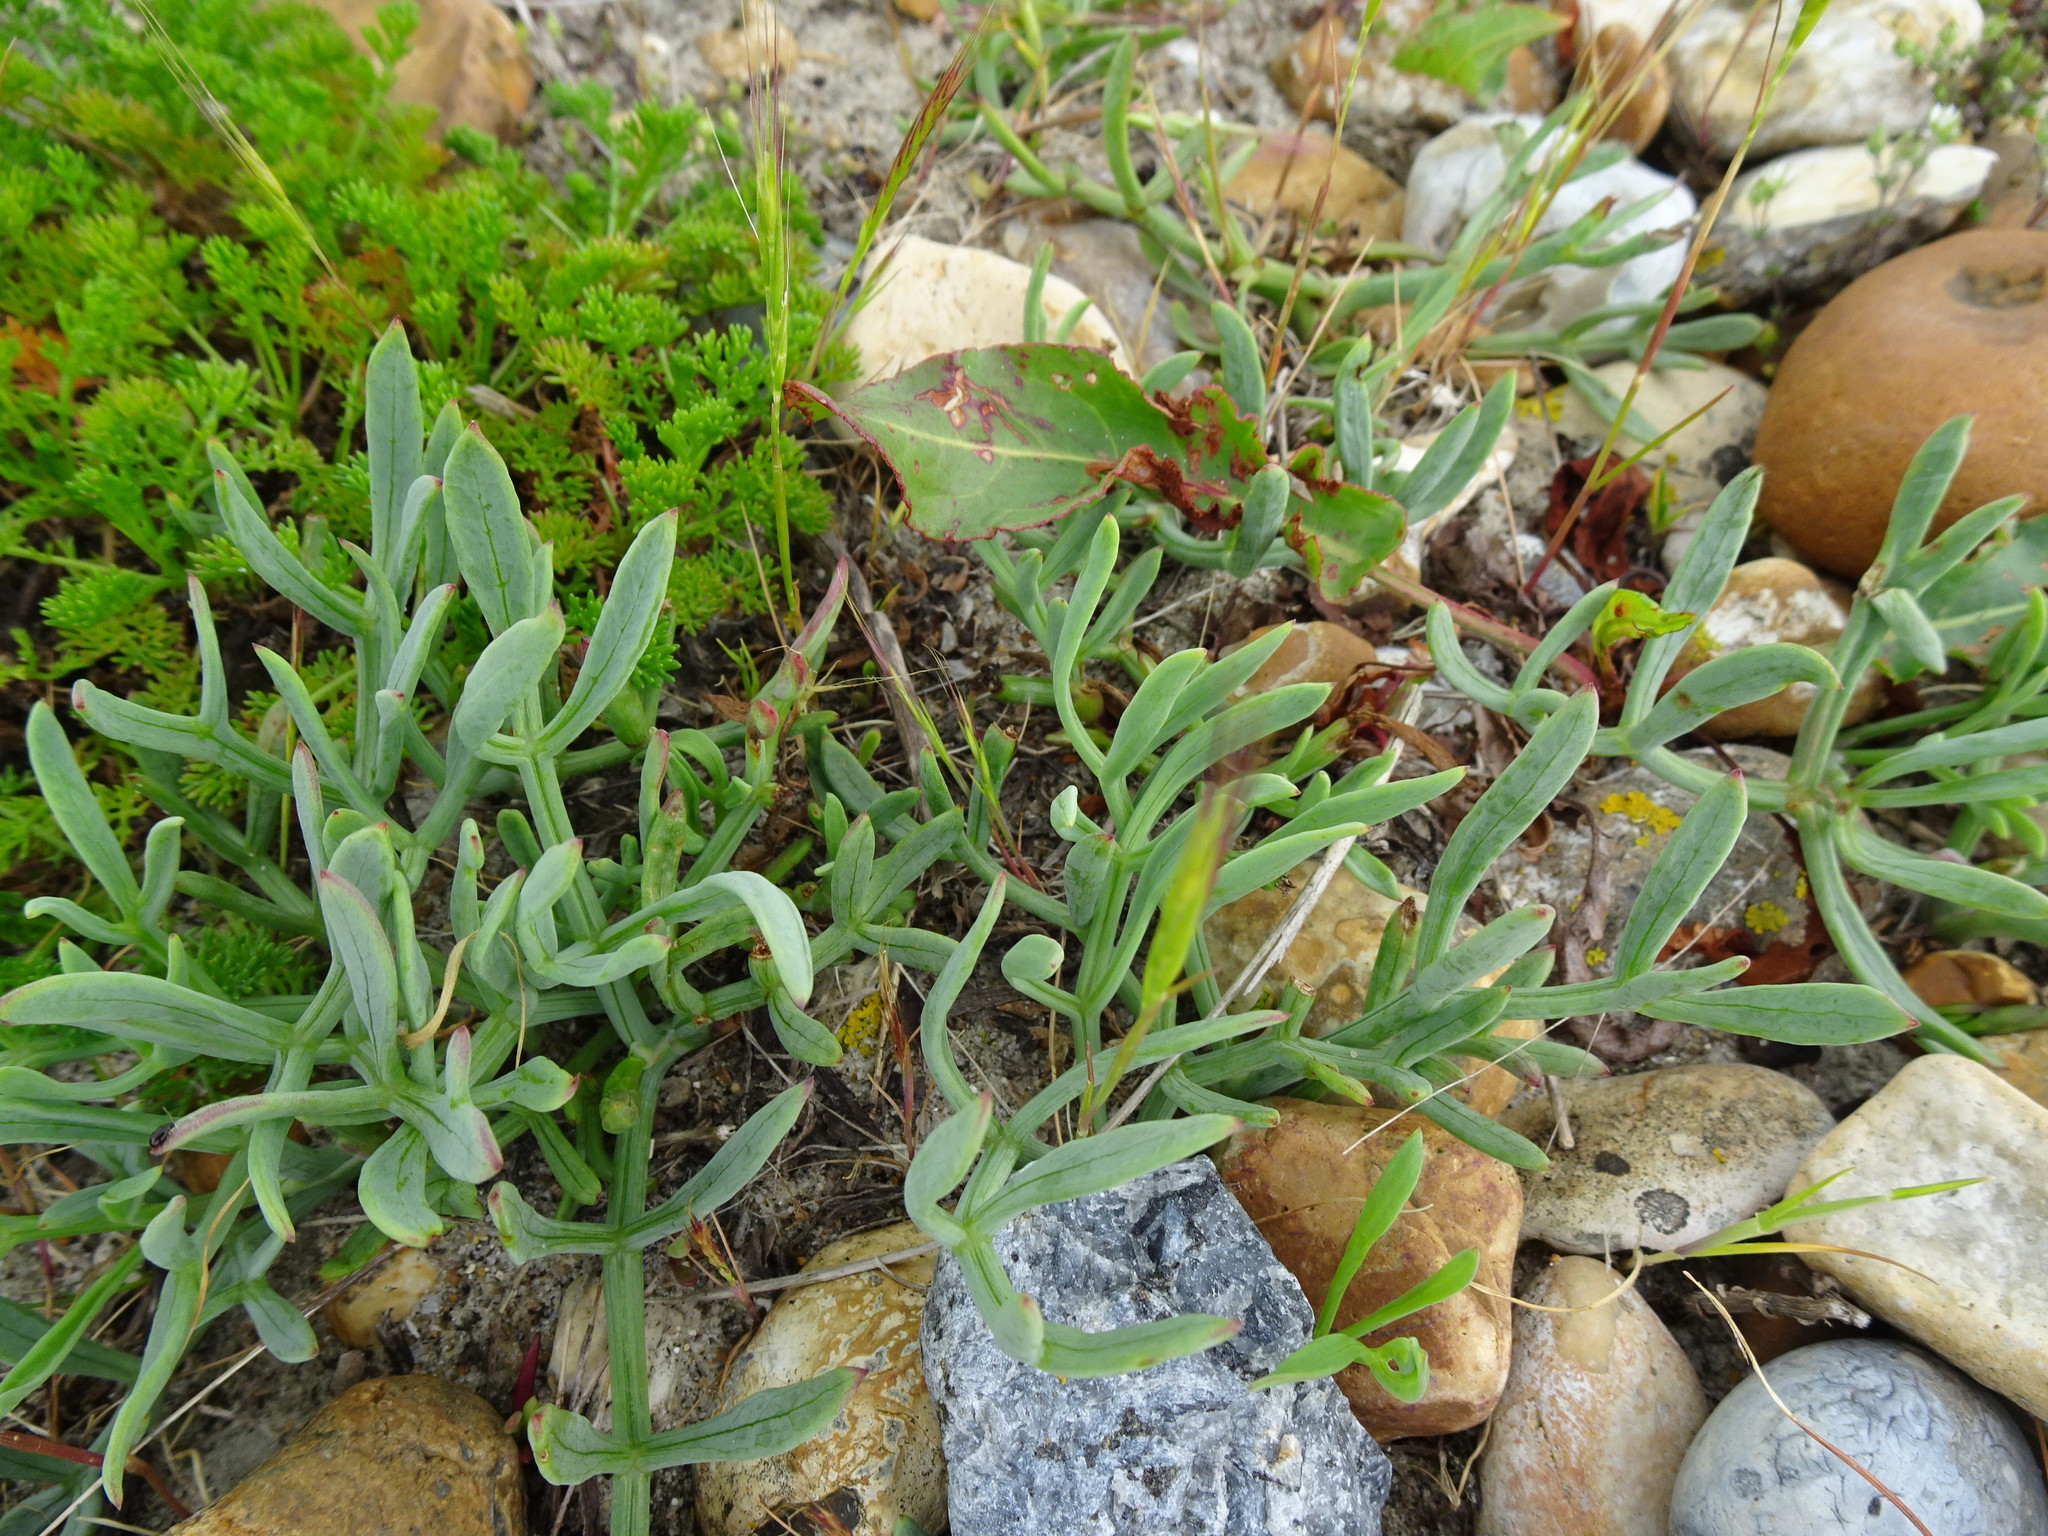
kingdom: Plantae
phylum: Tracheophyta
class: Magnoliopsida
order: Apiales
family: Apiaceae
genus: Crithmum
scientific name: Crithmum maritimum
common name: Rock samphire
